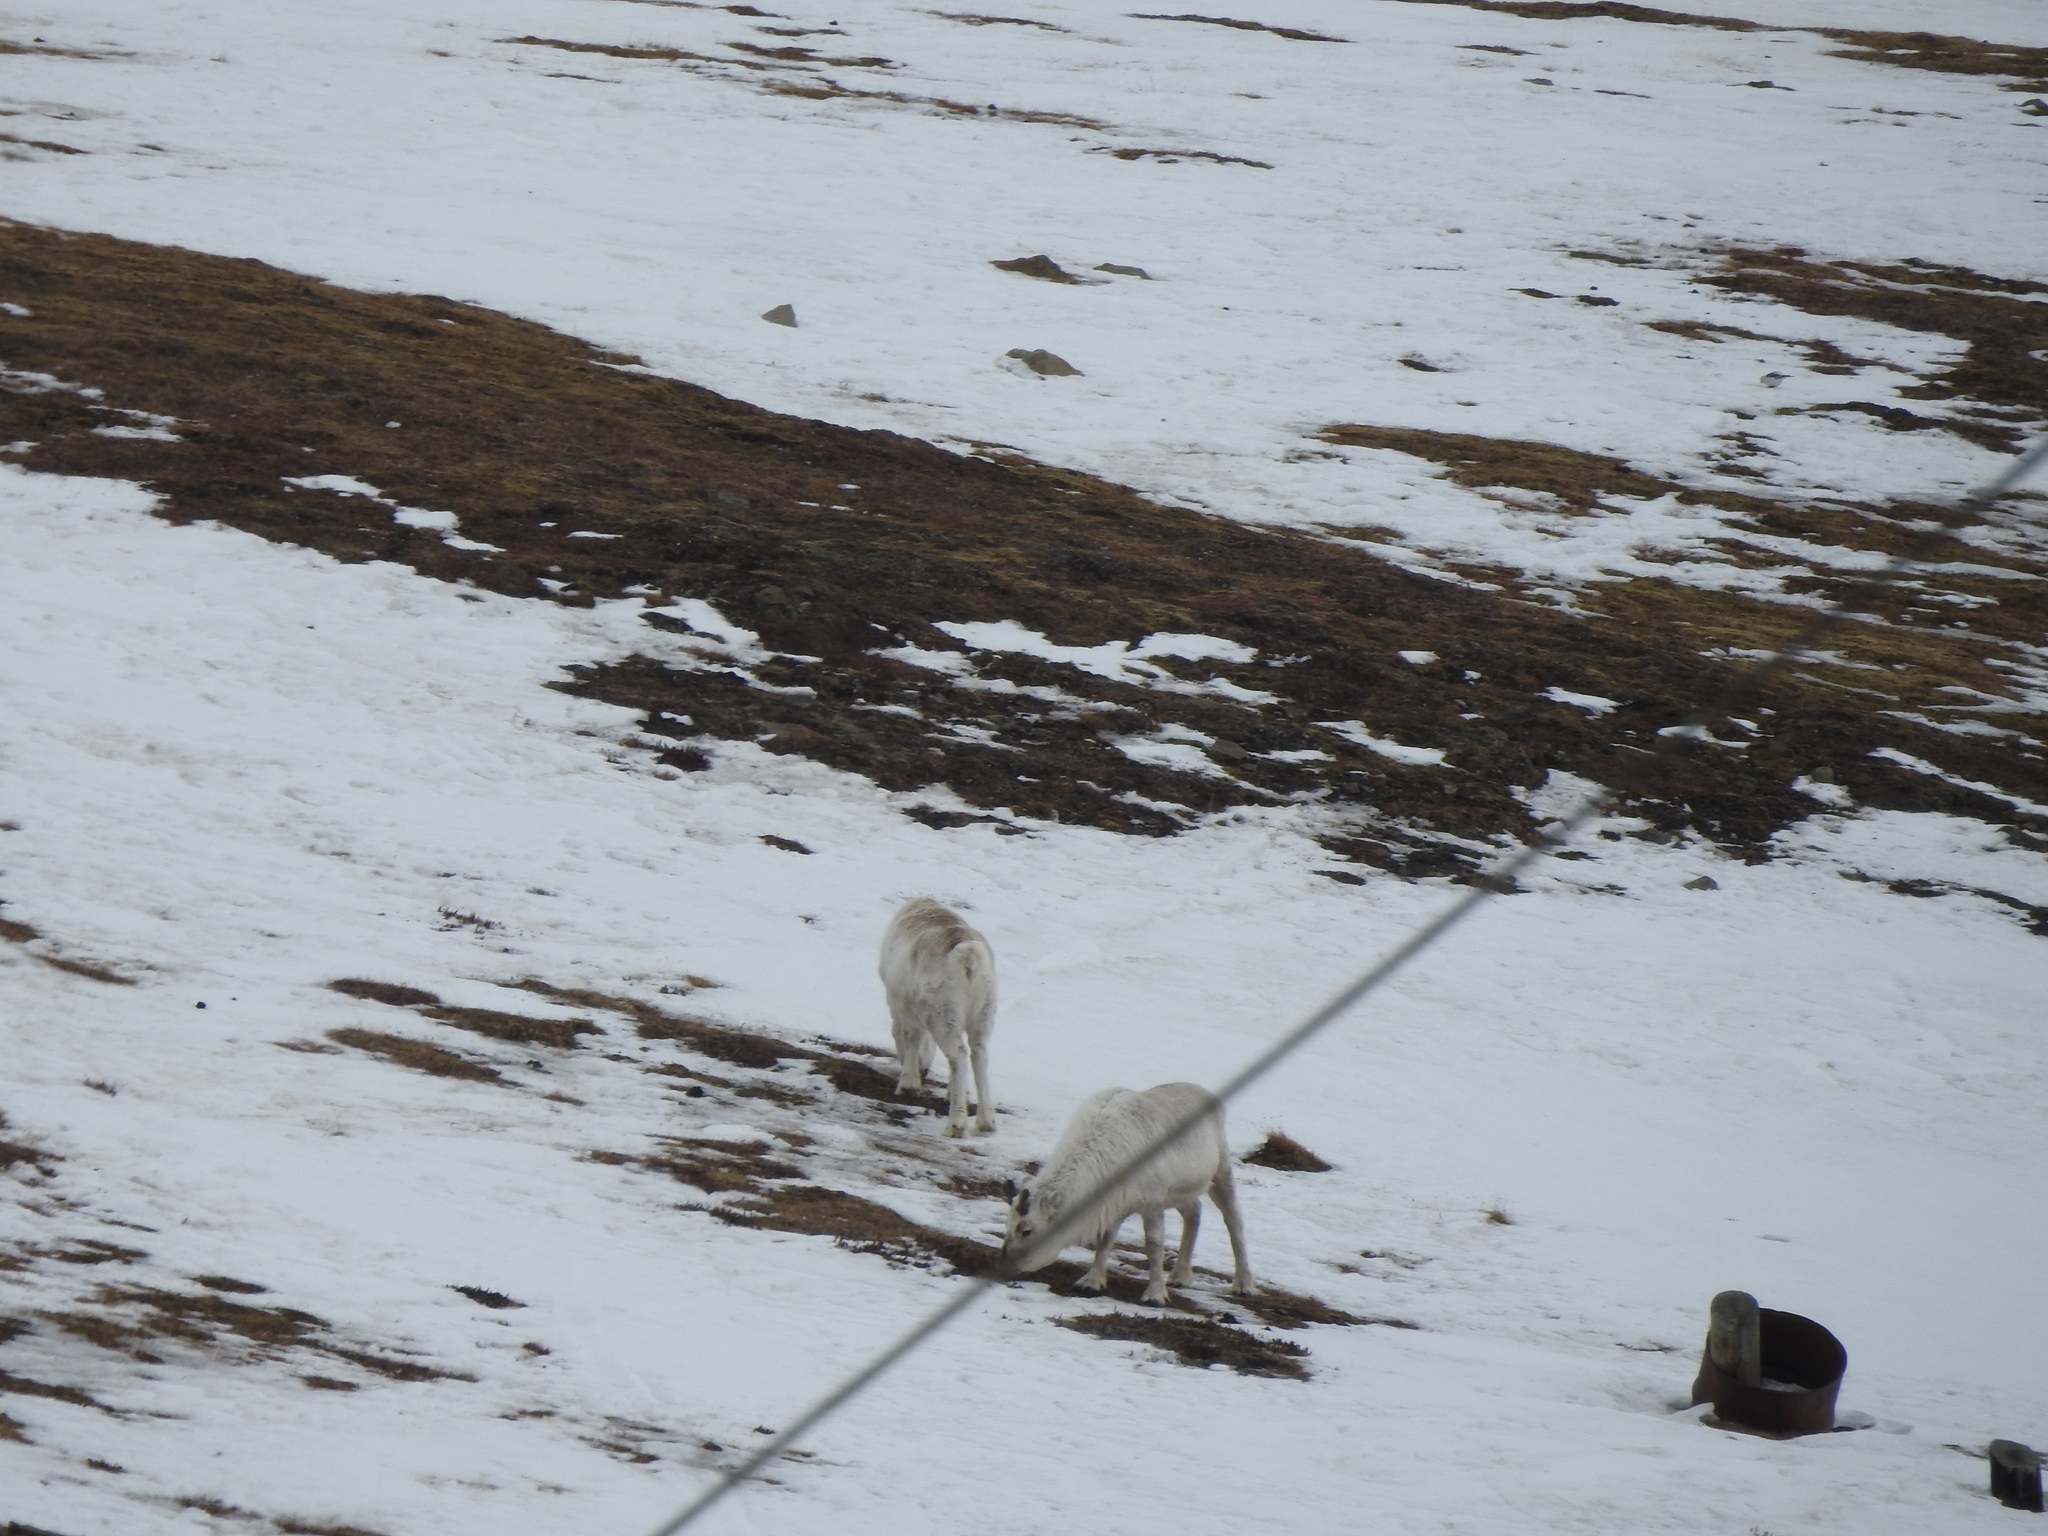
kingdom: Animalia
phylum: Chordata
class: Mammalia
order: Artiodactyla
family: Cervidae
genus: Rangifer
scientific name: Rangifer tarandus
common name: Reindeer
